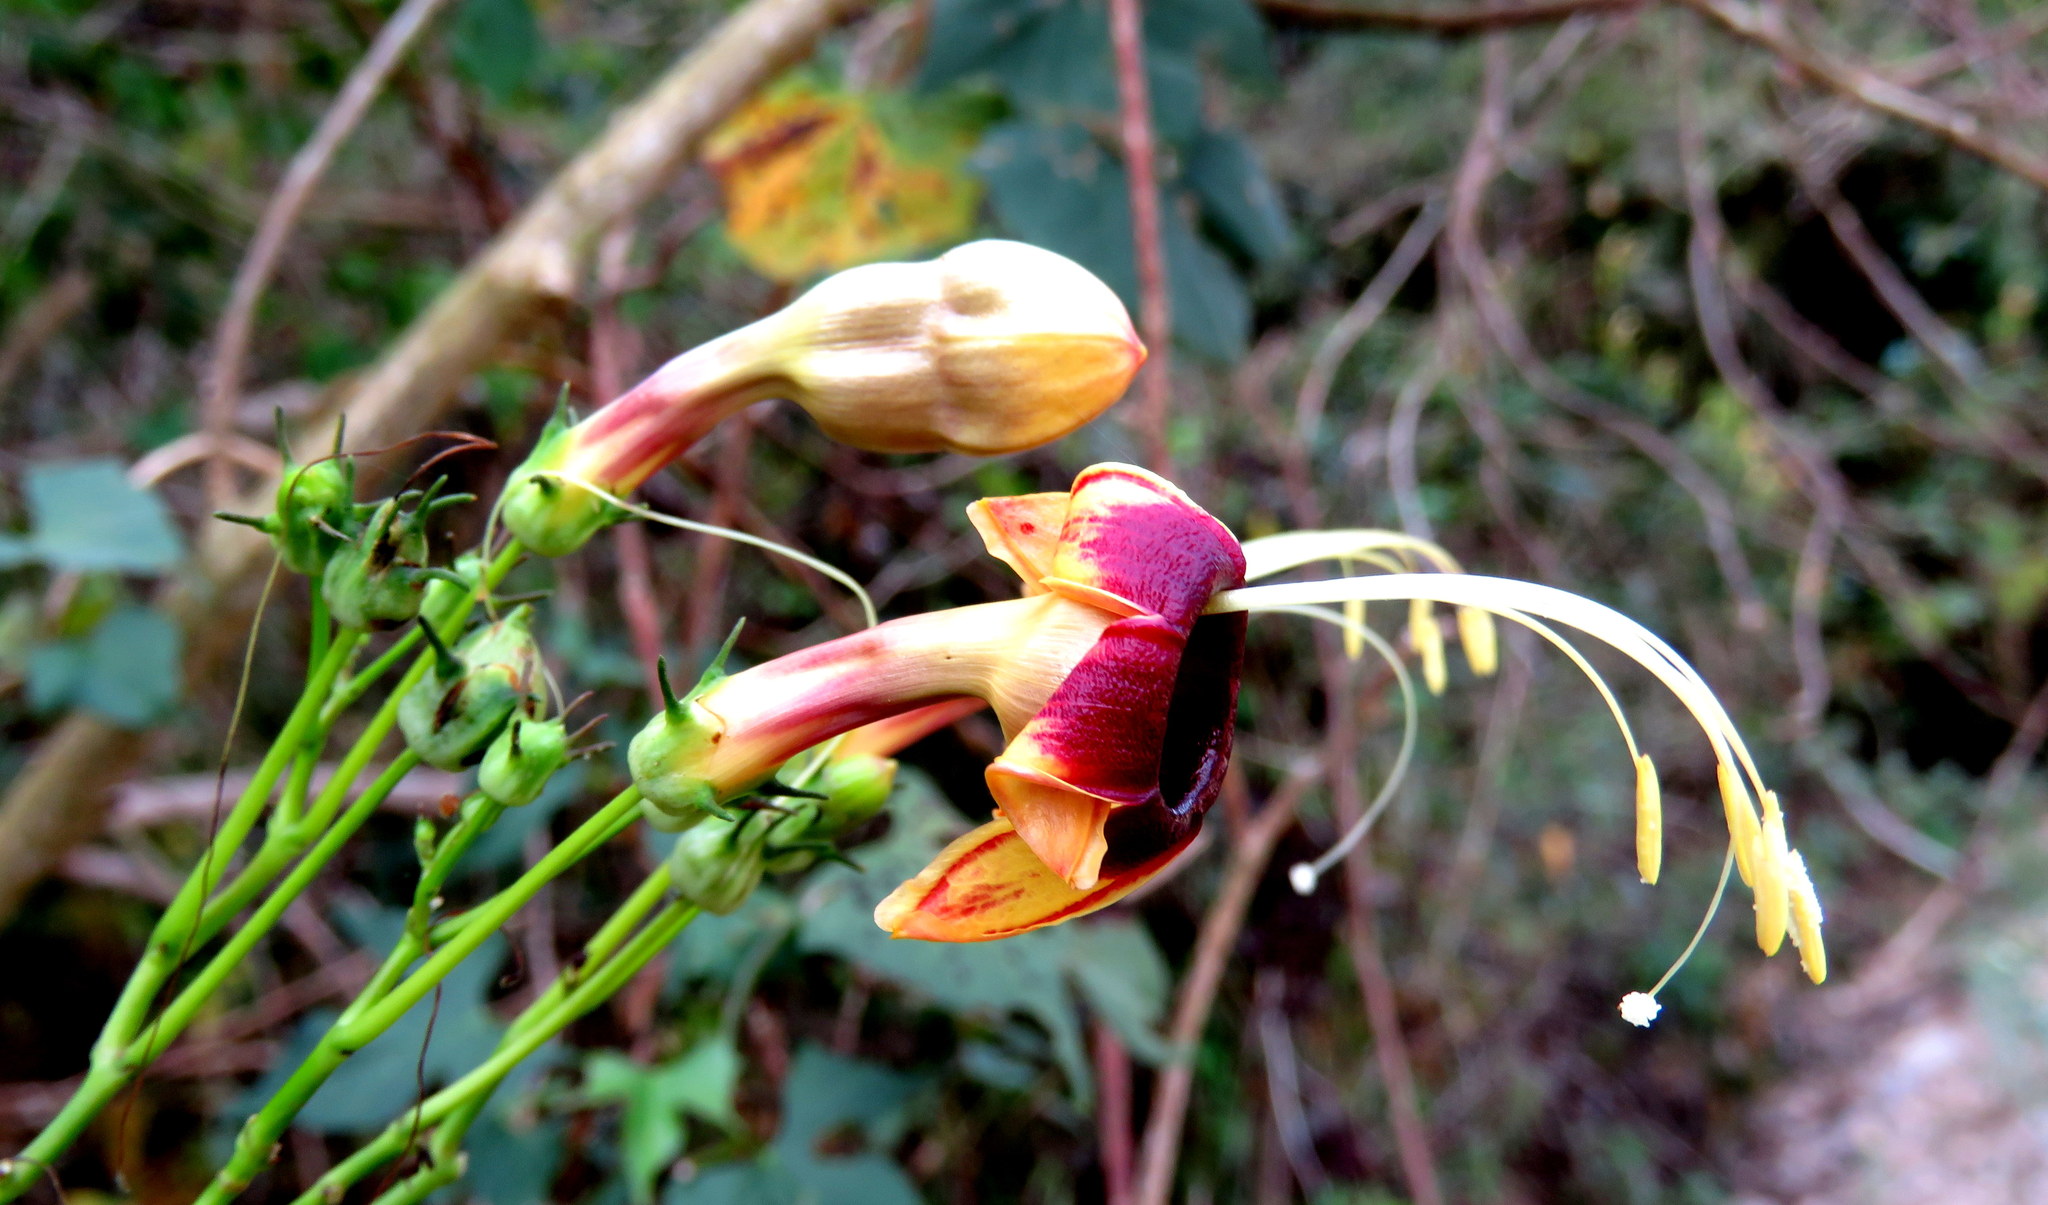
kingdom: Plantae
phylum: Tracheophyta
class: Magnoliopsida
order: Solanales
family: Convolvulaceae
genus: Ipomoea
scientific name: Ipomoea neei
